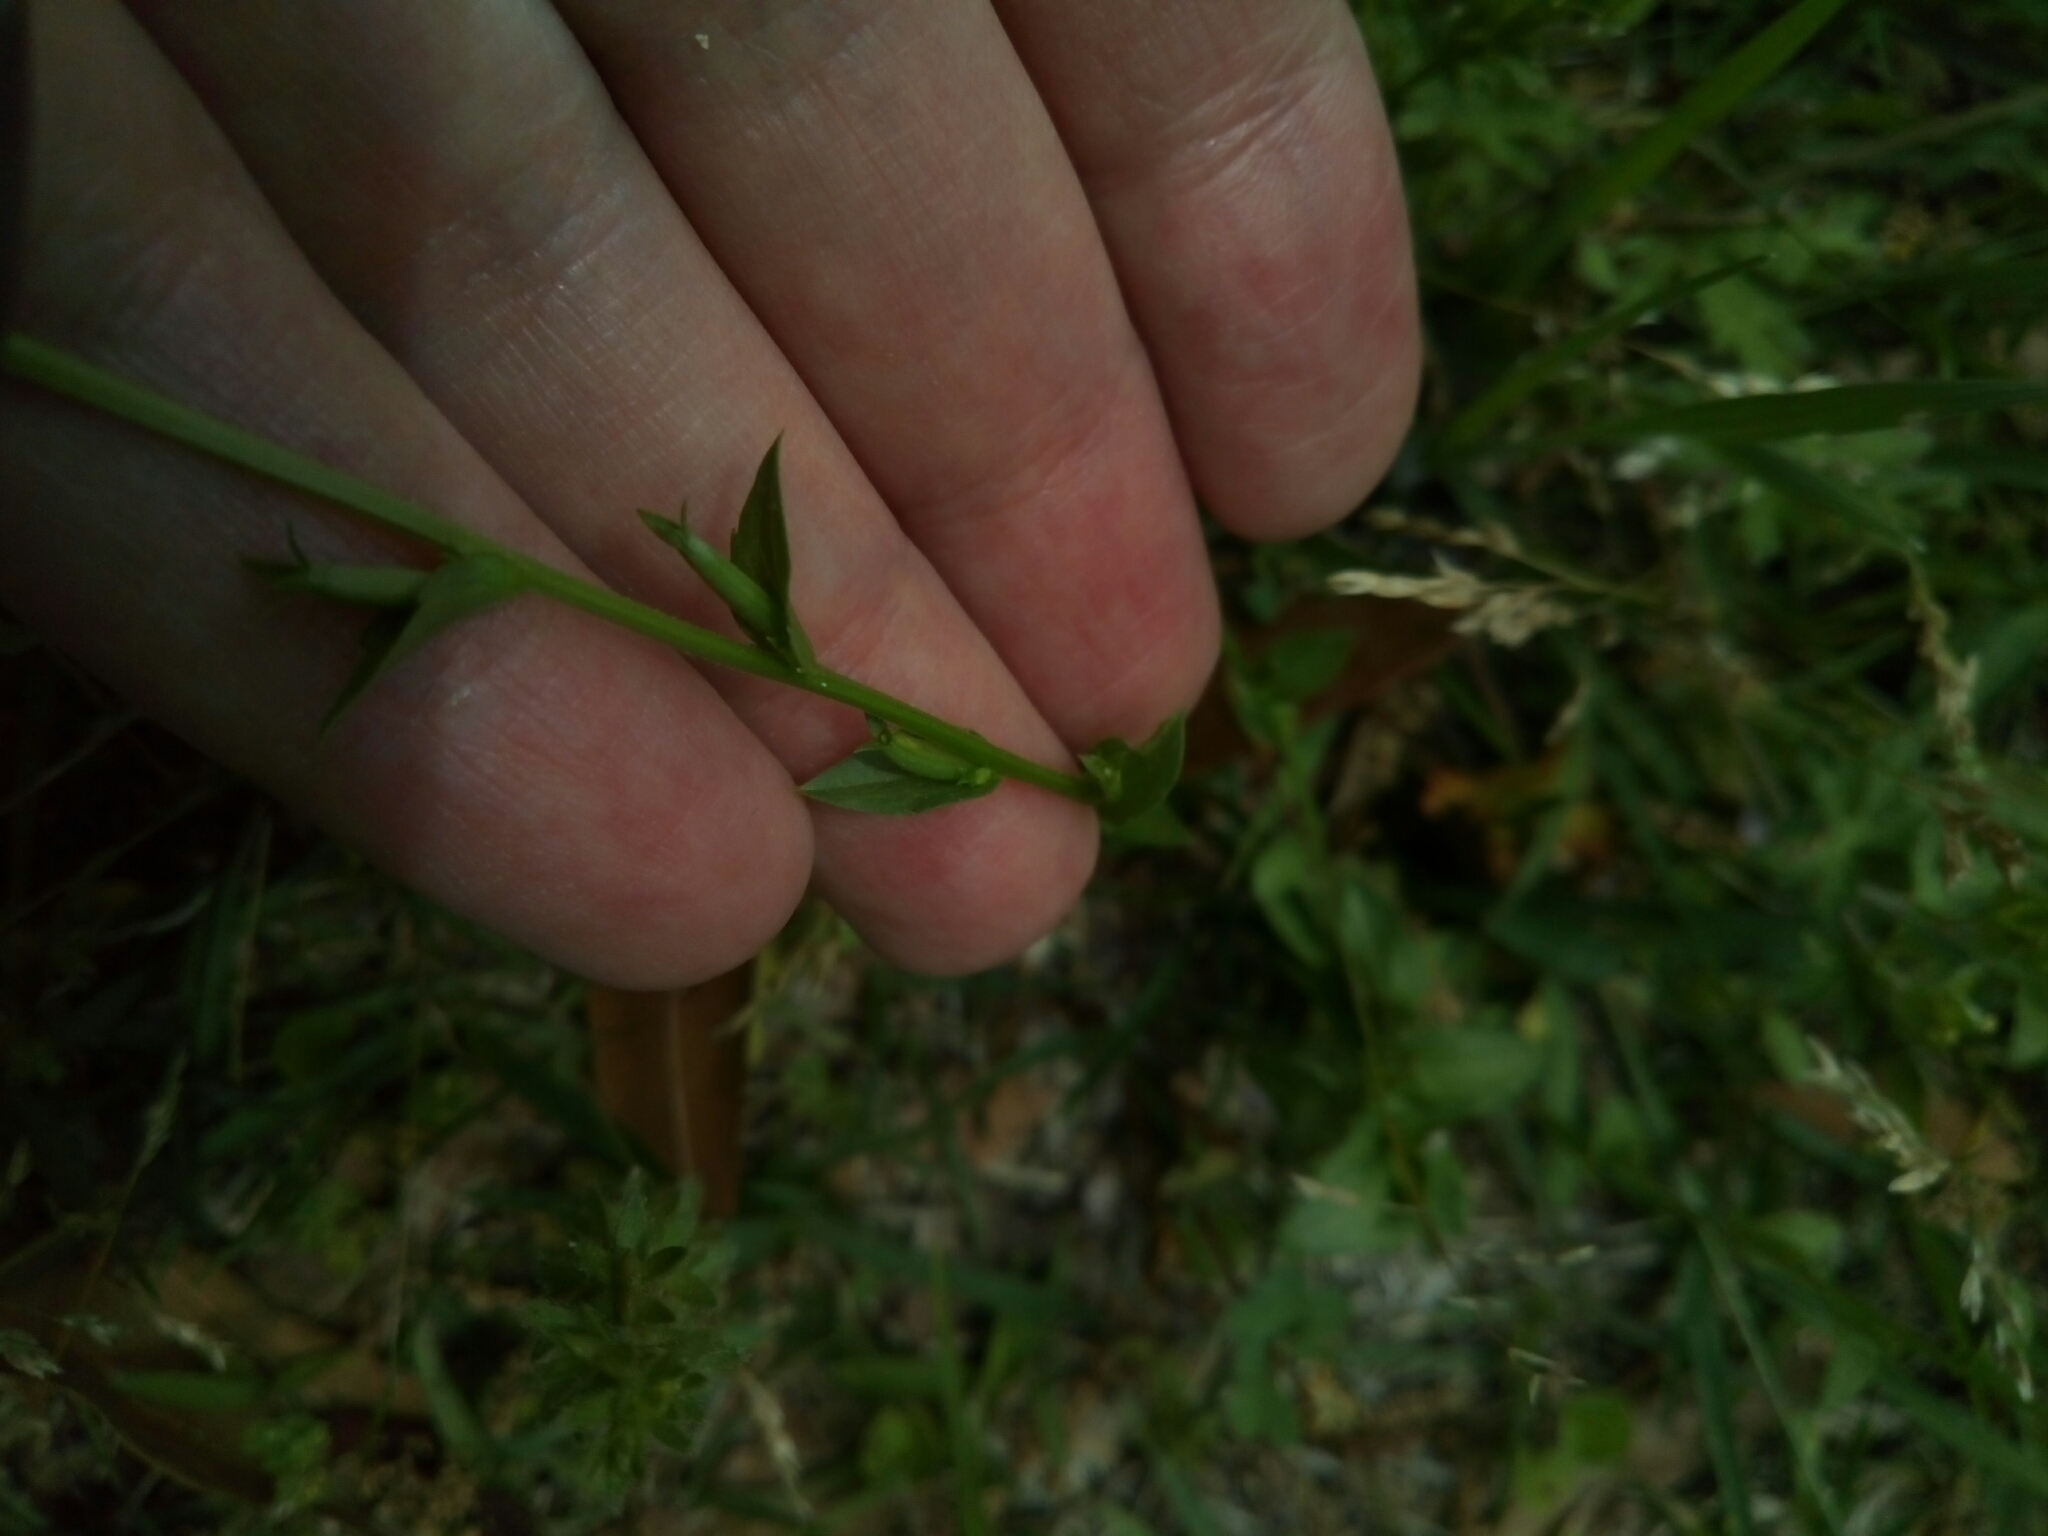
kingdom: Plantae
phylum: Tracheophyta
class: Magnoliopsida
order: Asterales
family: Campanulaceae
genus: Triodanis
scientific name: Triodanis perfoliata
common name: Clasping venus' looking-glass
